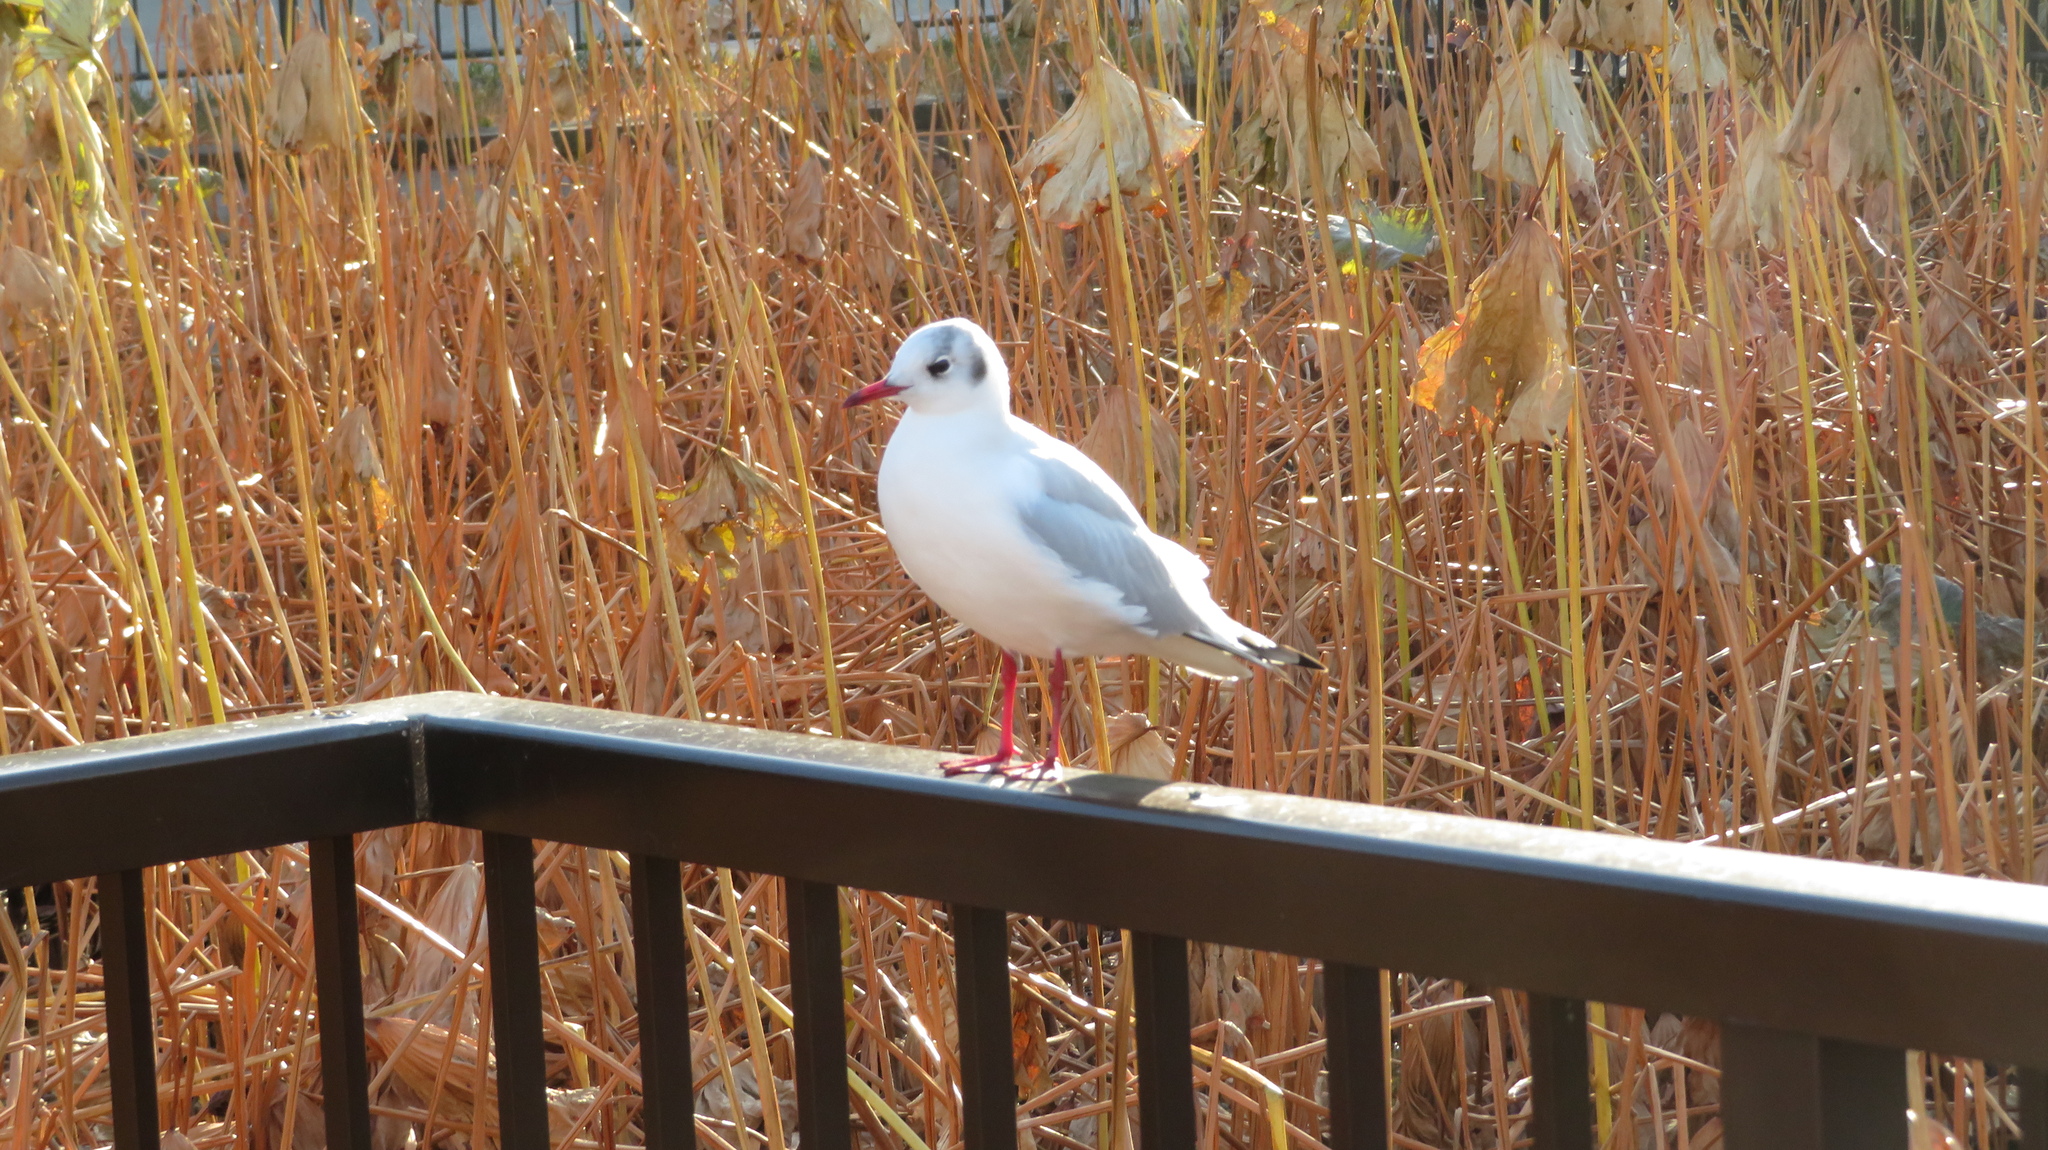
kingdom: Animalia
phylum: Chordata
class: Aves
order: Charadriiformes
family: Laridae
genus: Chroicocephalus
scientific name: Chroicocephalus ridibundus
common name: Black-headed gull
